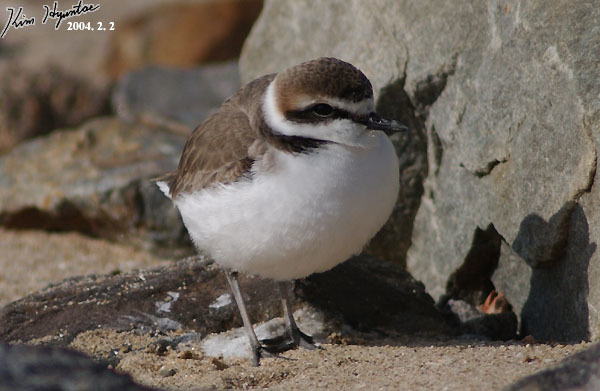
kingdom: Animalia
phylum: Chordata
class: Aves
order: Charadriiformes
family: Charadriidae
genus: Charadrius
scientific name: Charadrius alexandrinus
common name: Kentish plover
